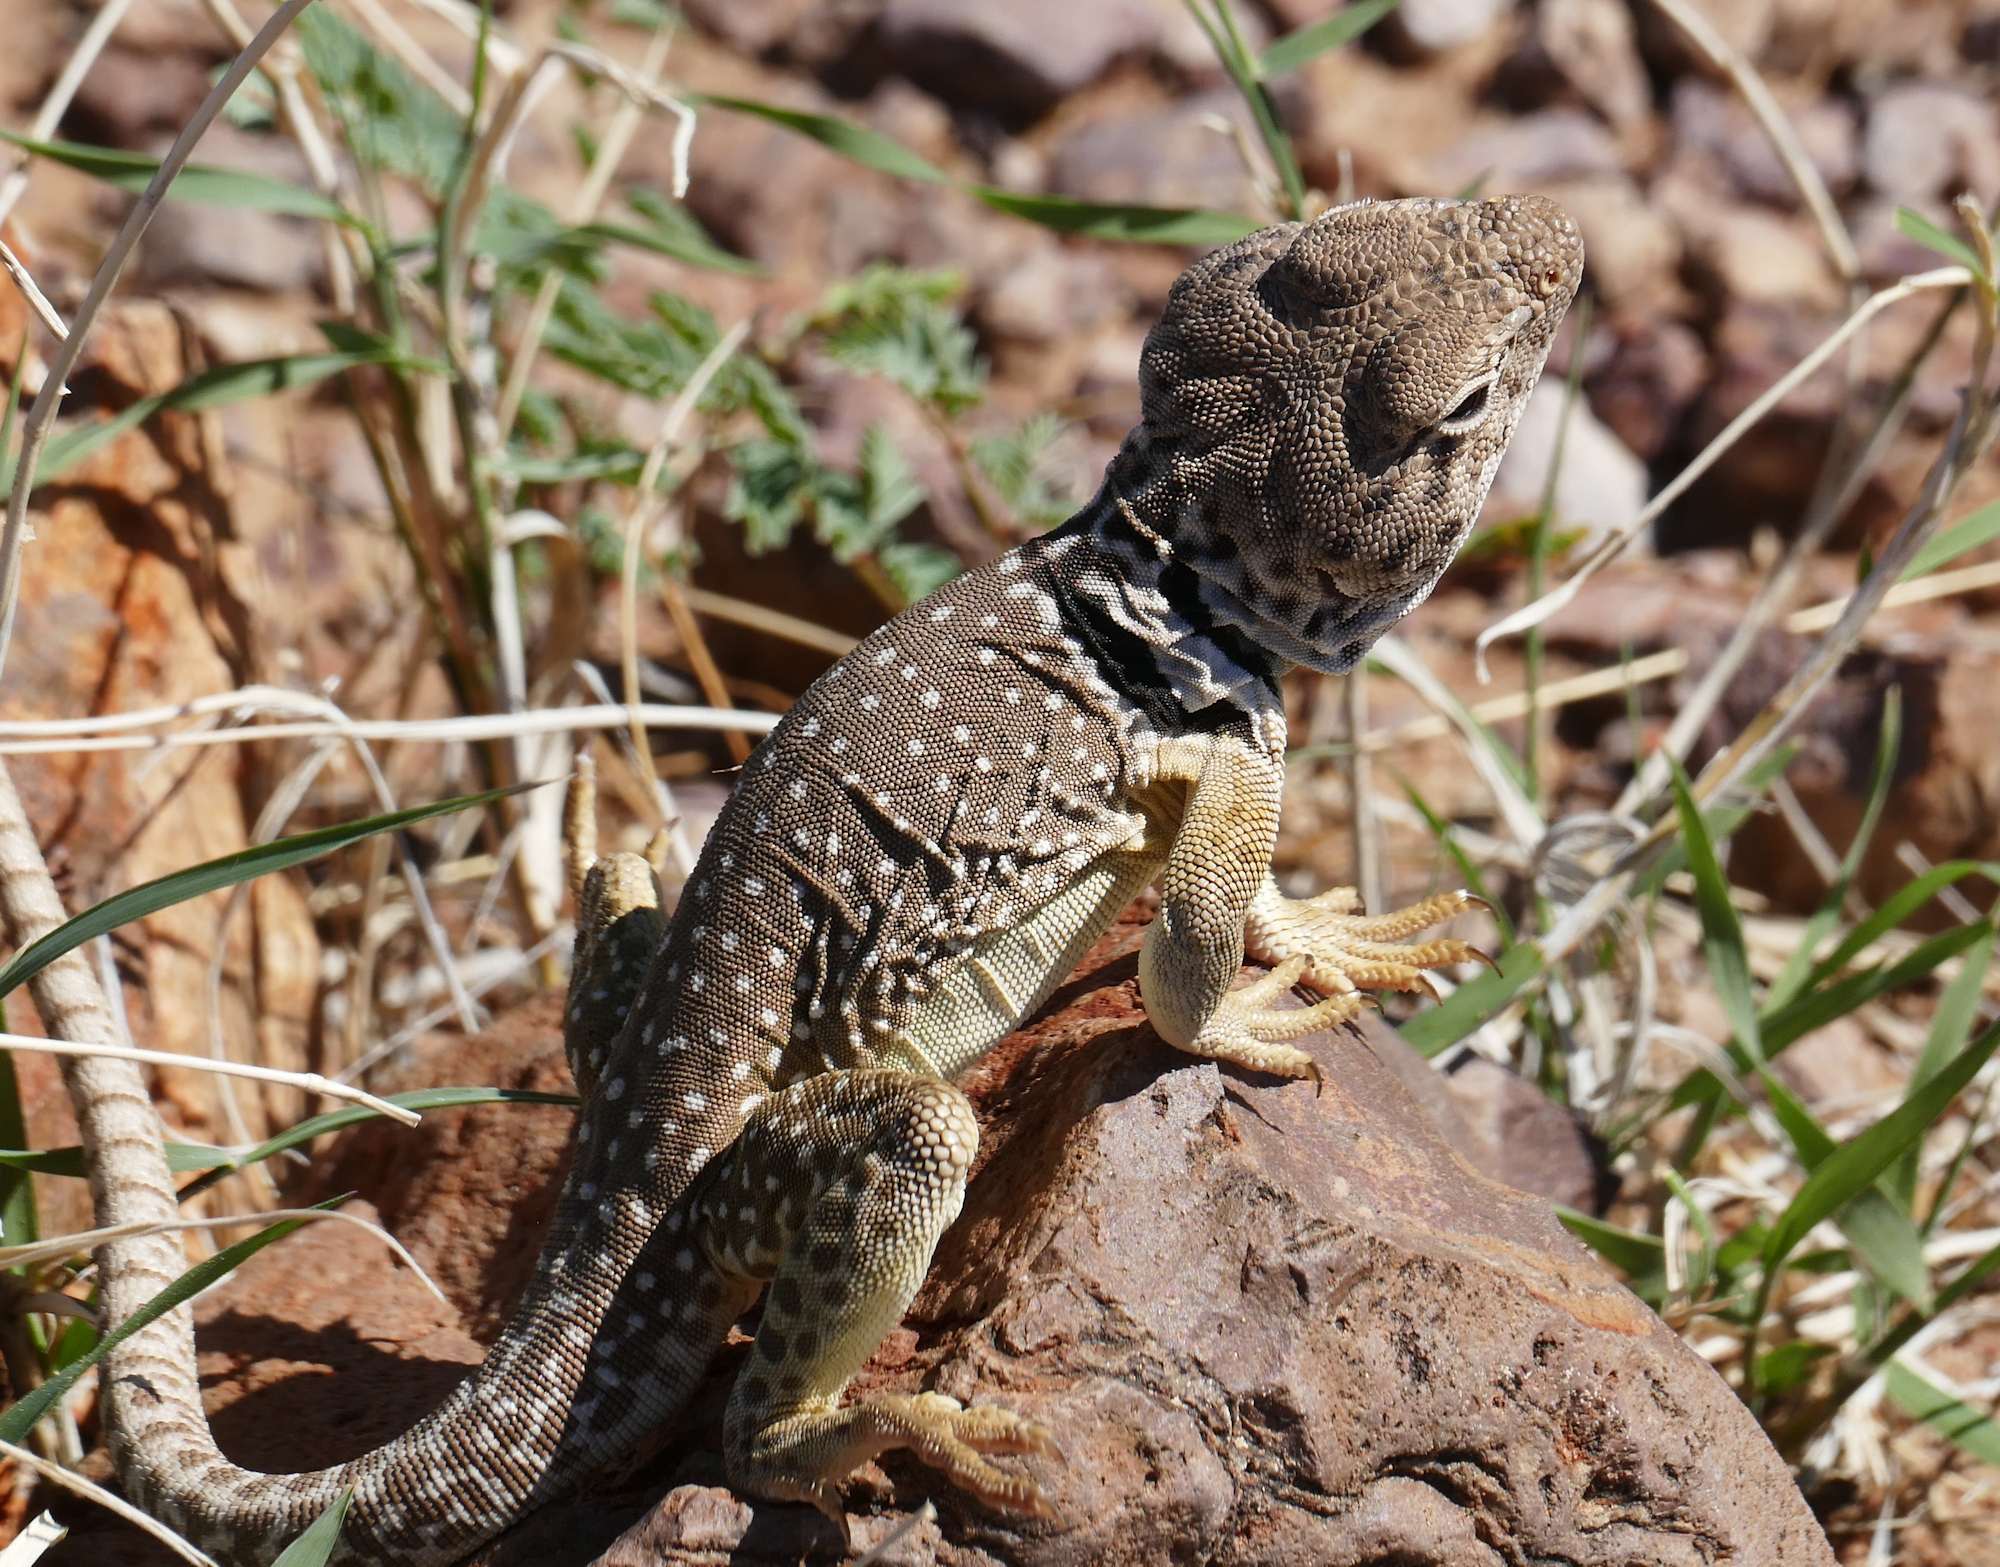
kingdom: Animalia
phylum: Chordata
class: Squamata
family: Crotaphytidae
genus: Crotaphytus
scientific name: Crotaphytus collaris
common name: Collared lizard
